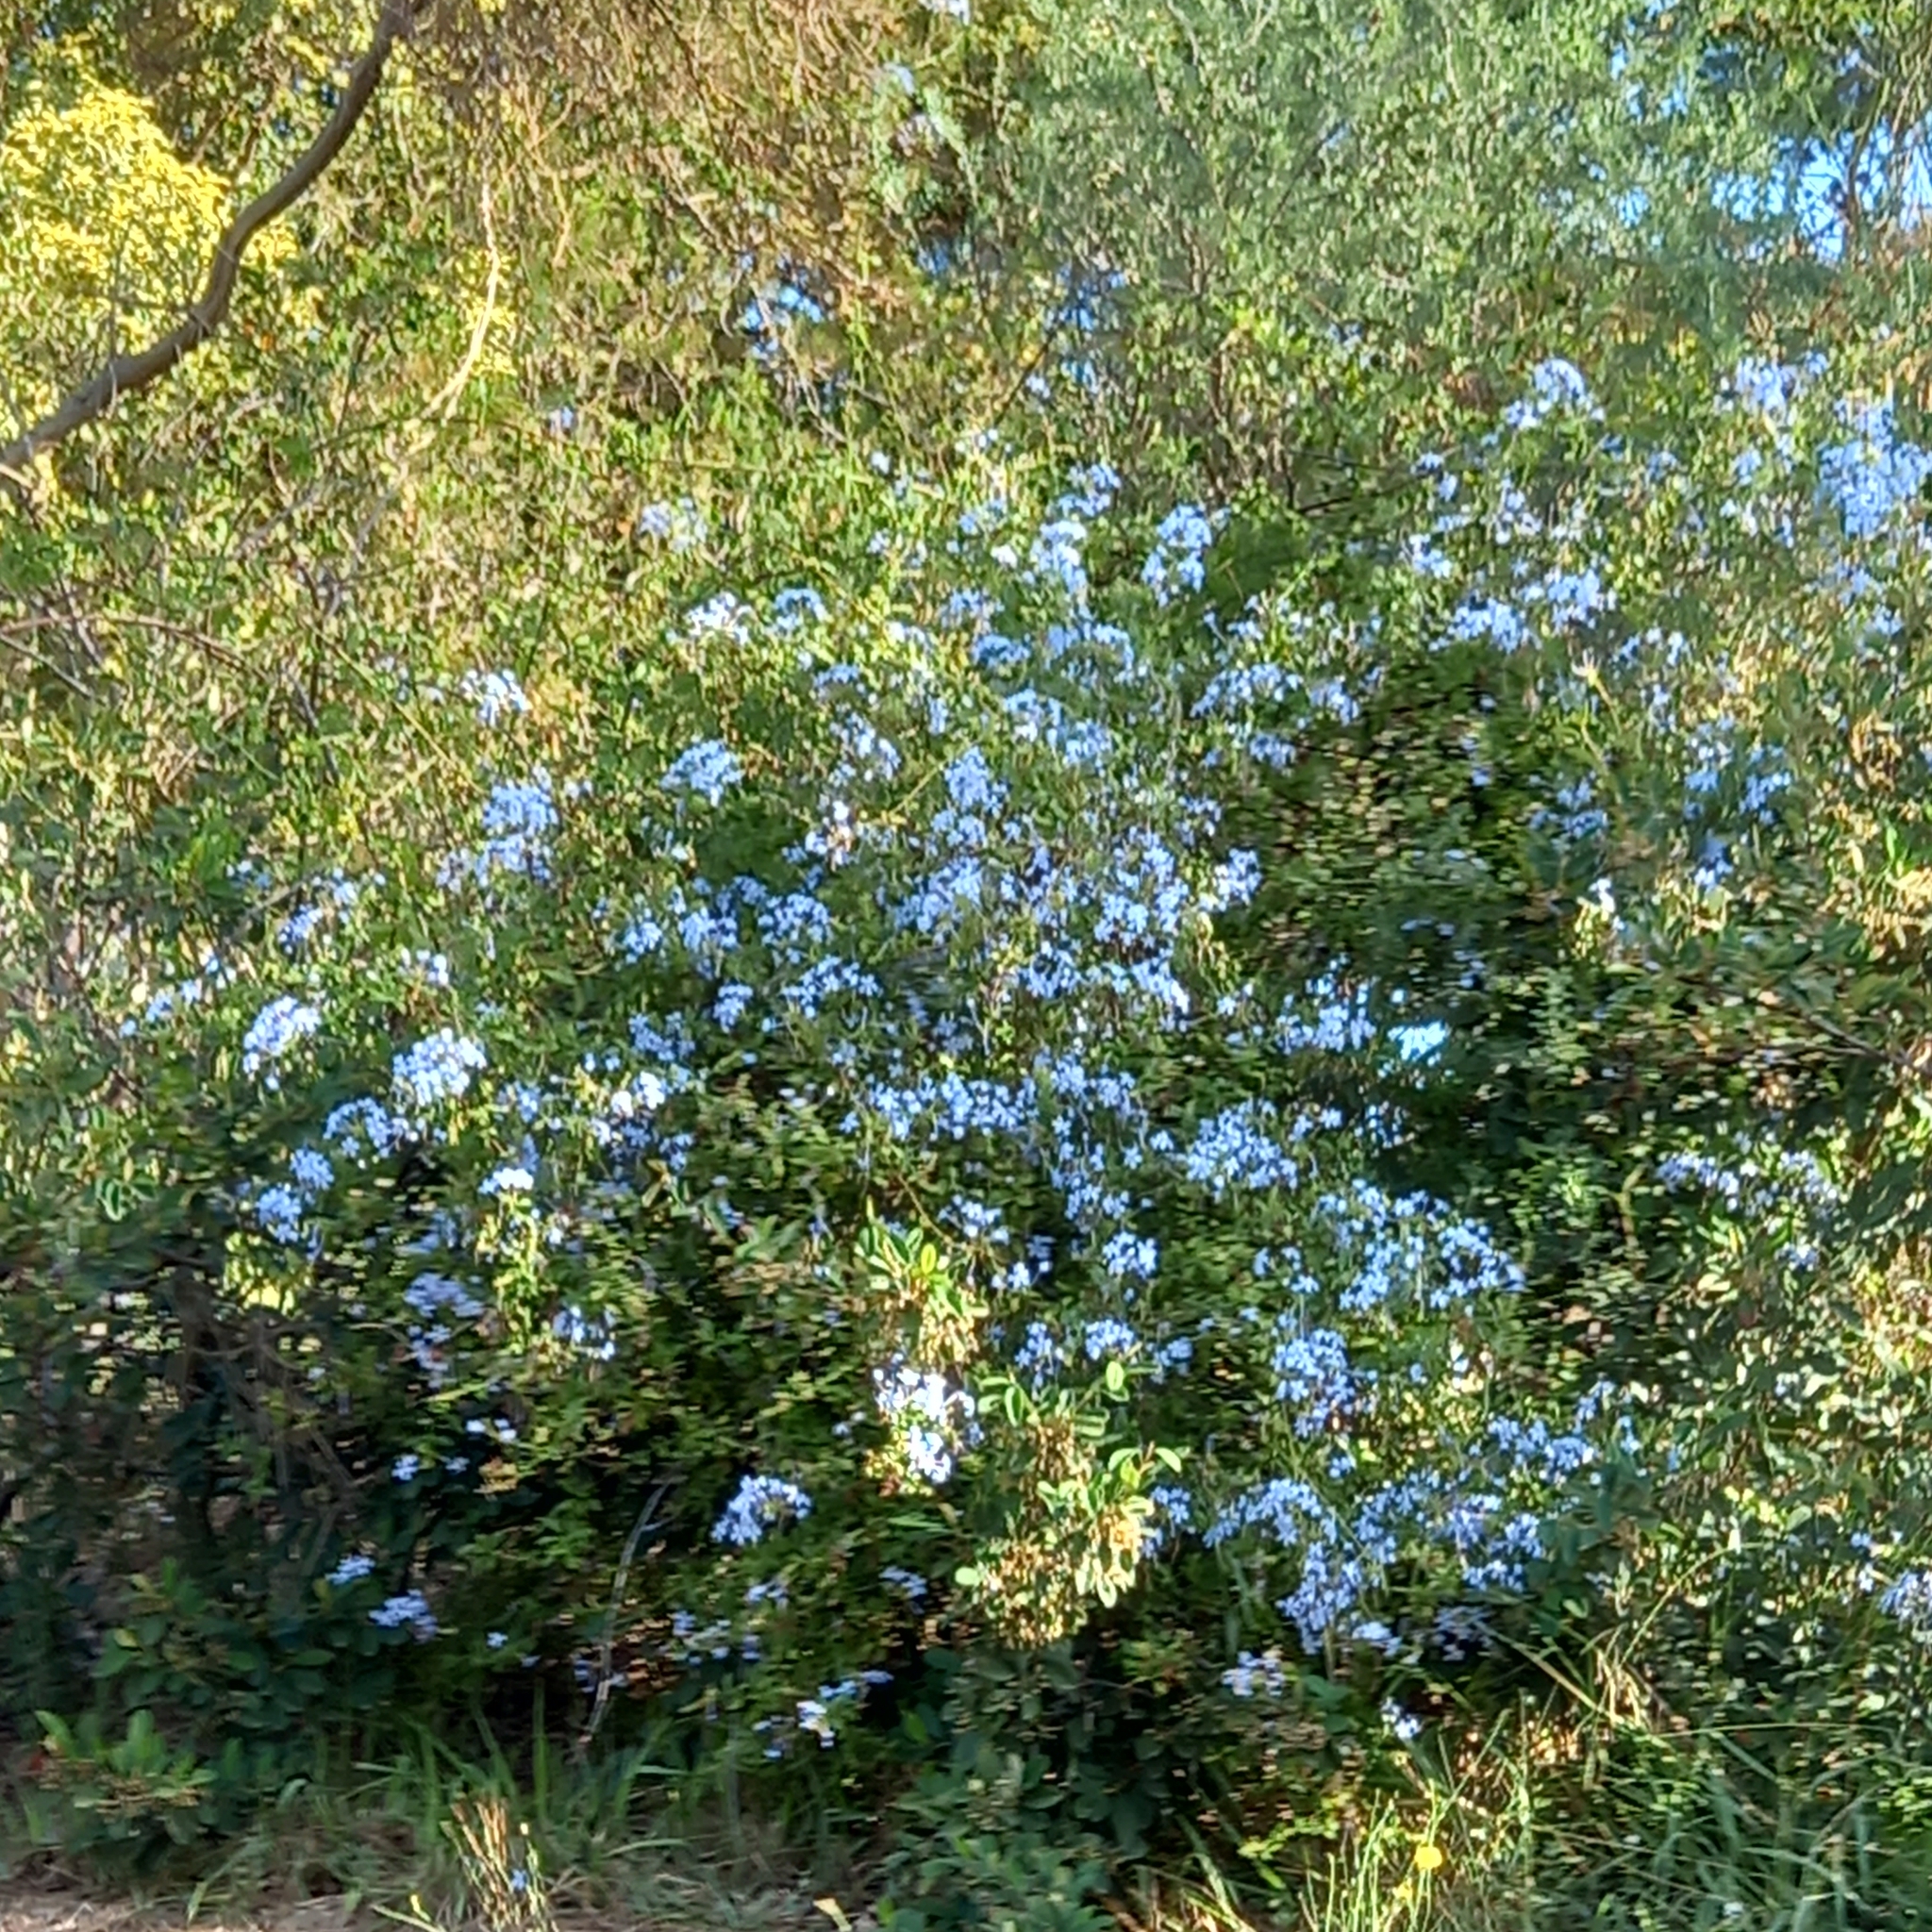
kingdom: Plantae
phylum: Tracheophyta
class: Magnoliopsida
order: Caryophyllales
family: Plumbaginaceae
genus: Plumbago
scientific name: Plumbago auriculata
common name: Cape leadwort
